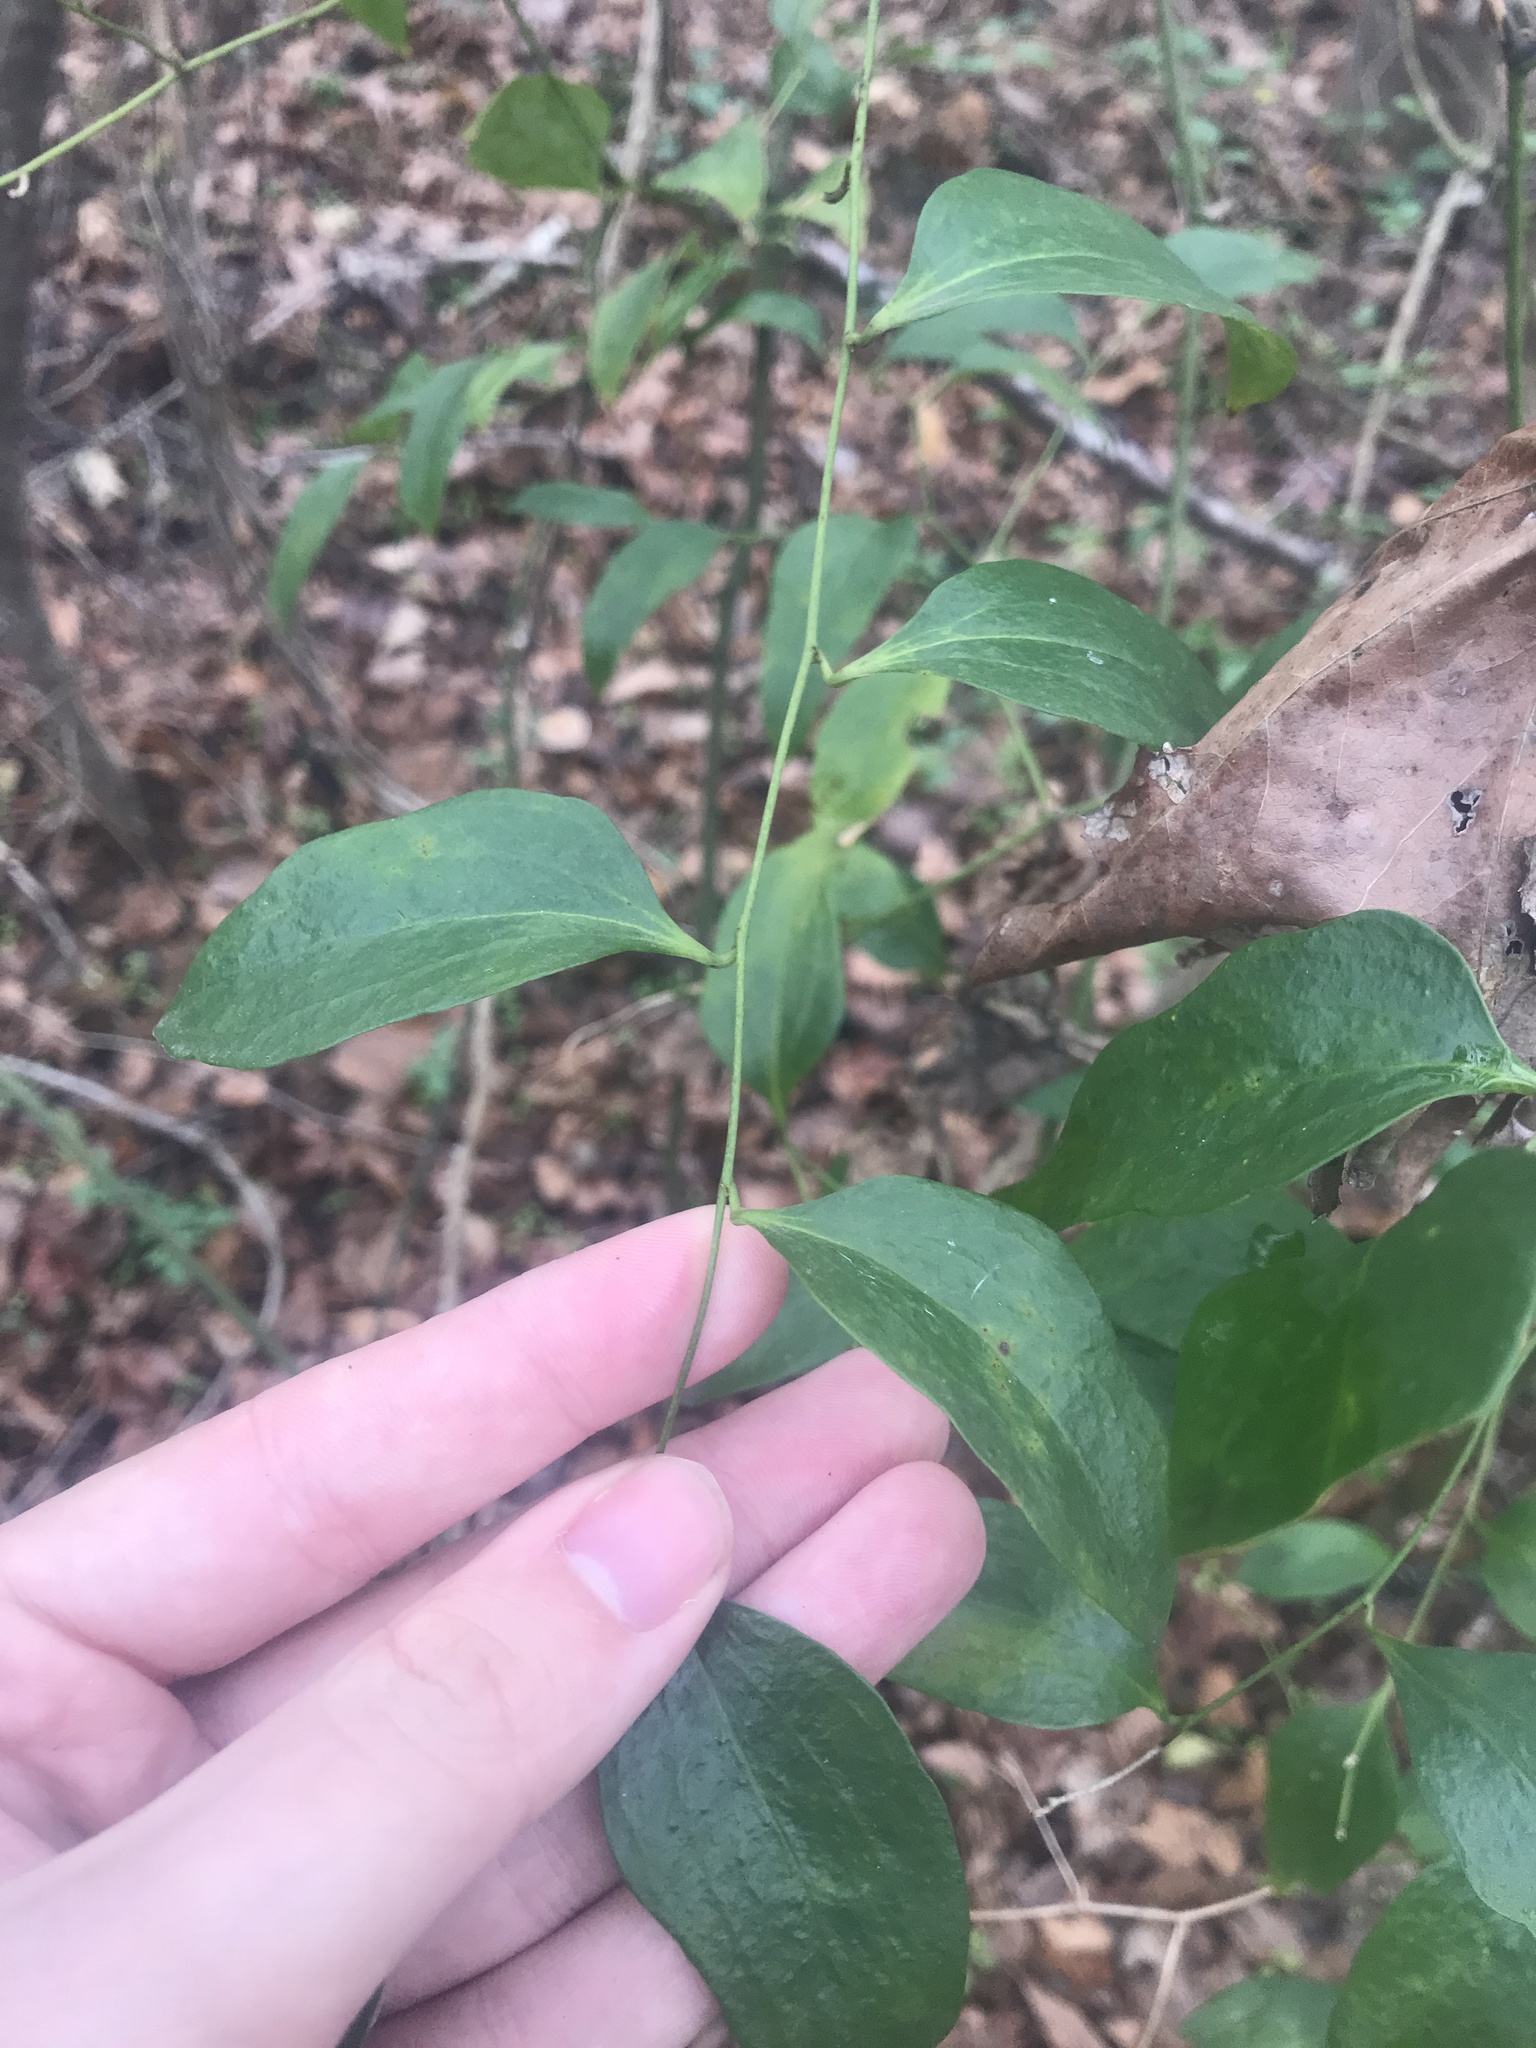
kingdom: Plantae
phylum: Tracheophyta
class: Liliopsida
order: Liliales
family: Smilacaceae
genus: Smilax
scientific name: Smilax maritima
